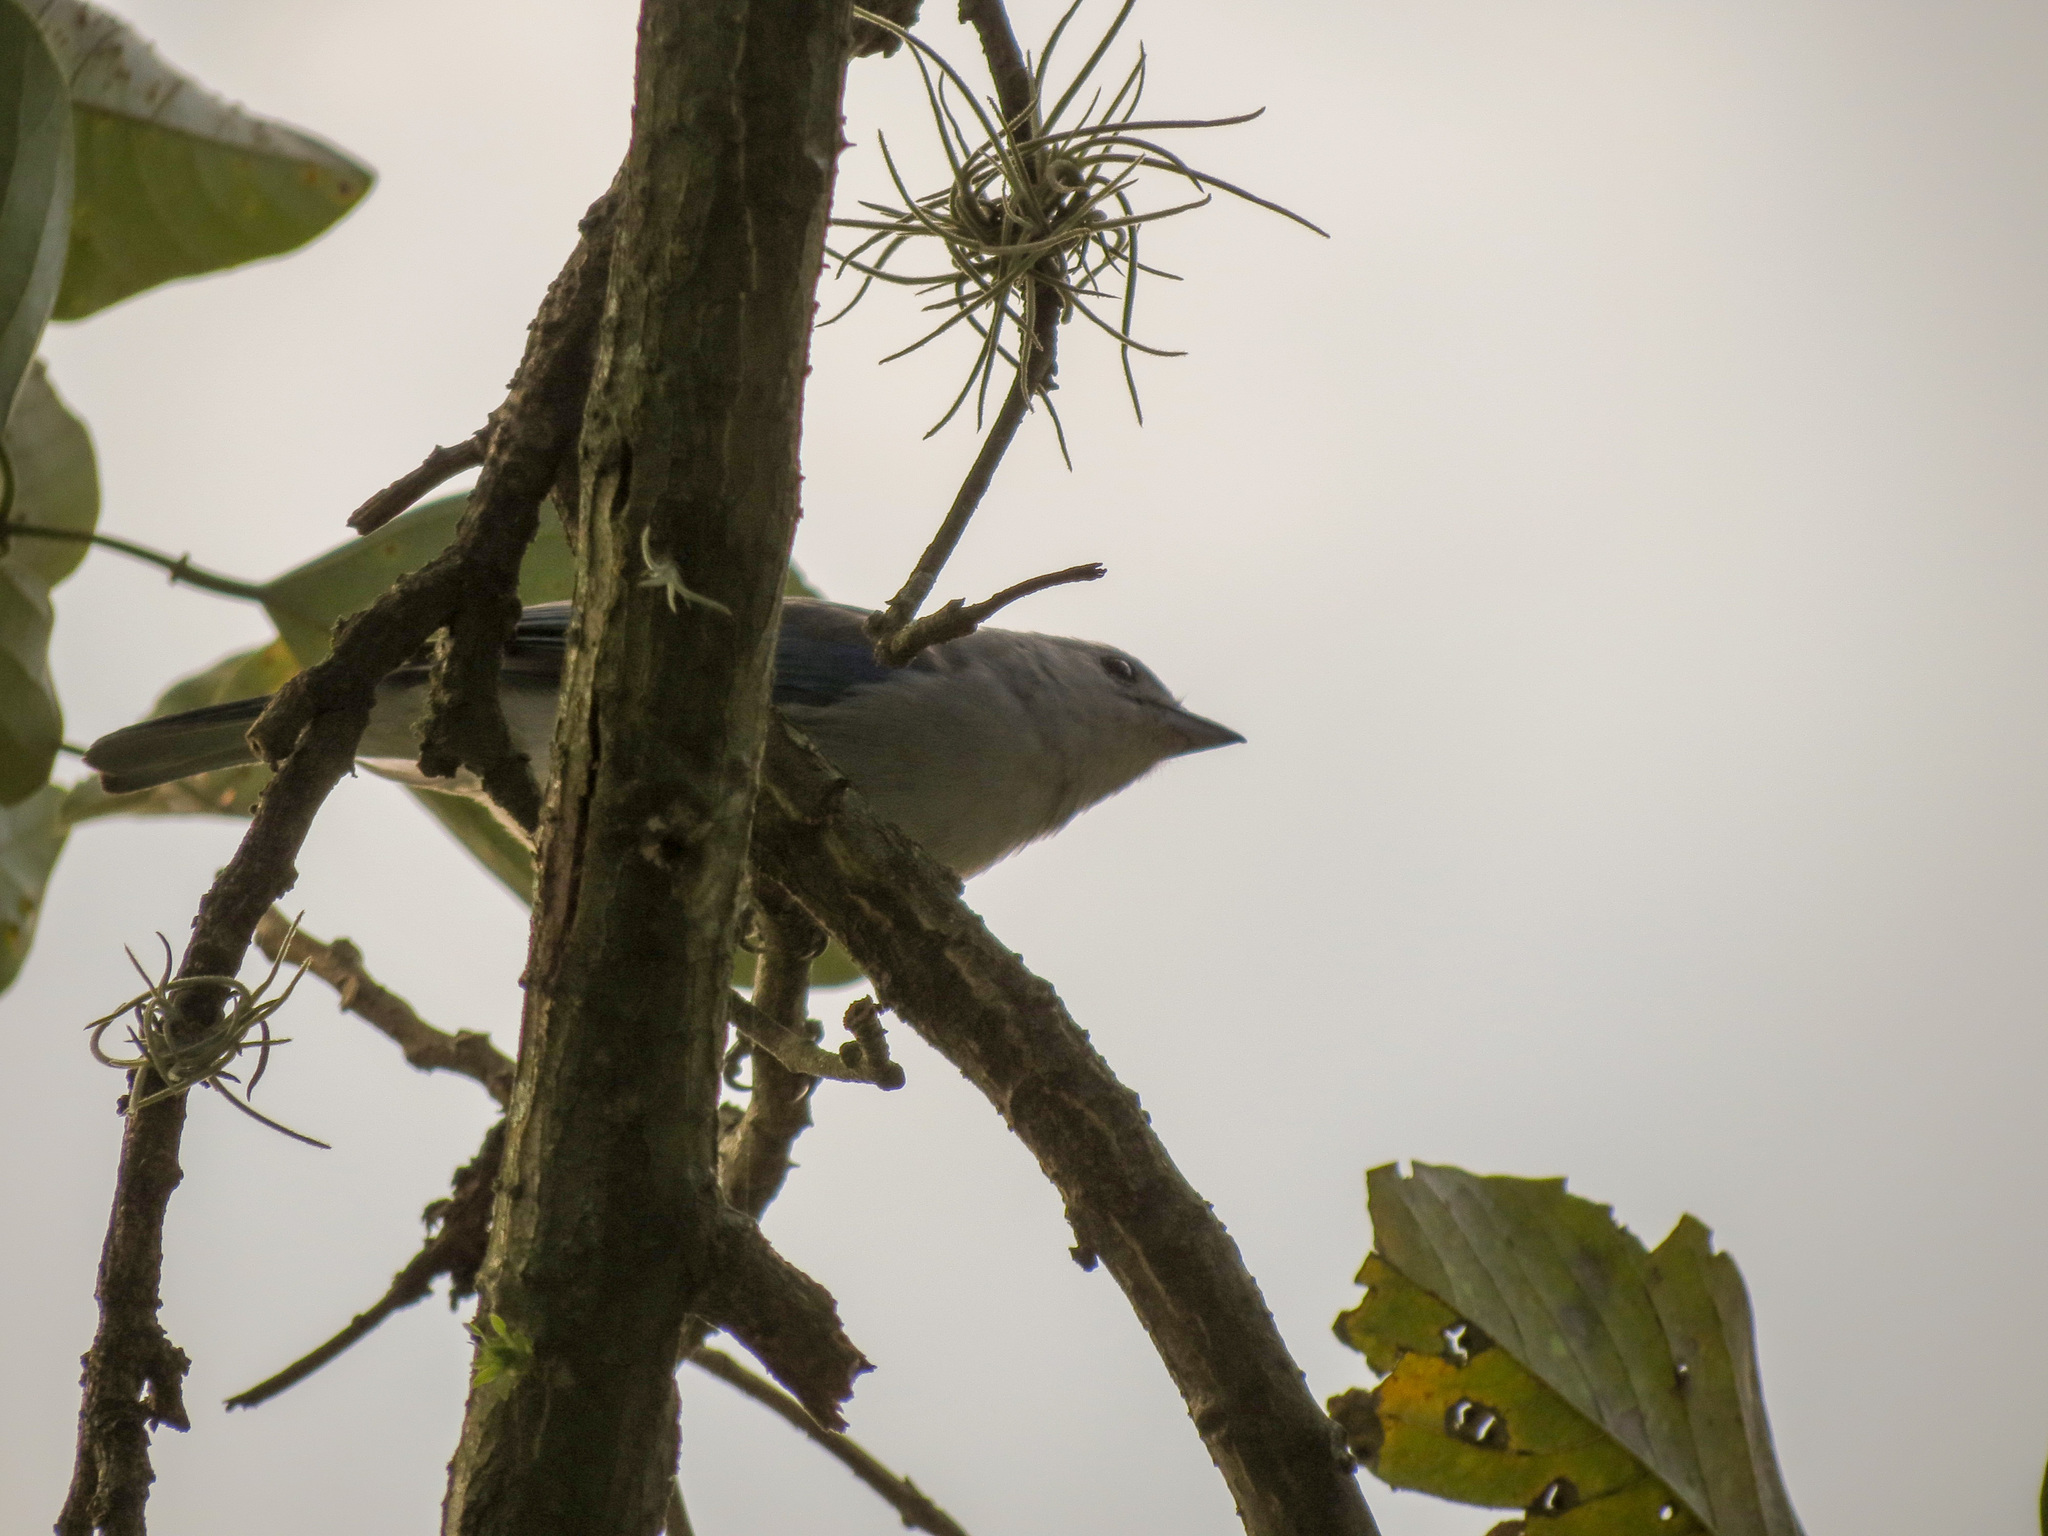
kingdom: Animalia
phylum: Chordata
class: Aves
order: Passeriformes
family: Thraupidae
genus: Thraupis
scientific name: Thraupis episcopus
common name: Blue-grey tanager
